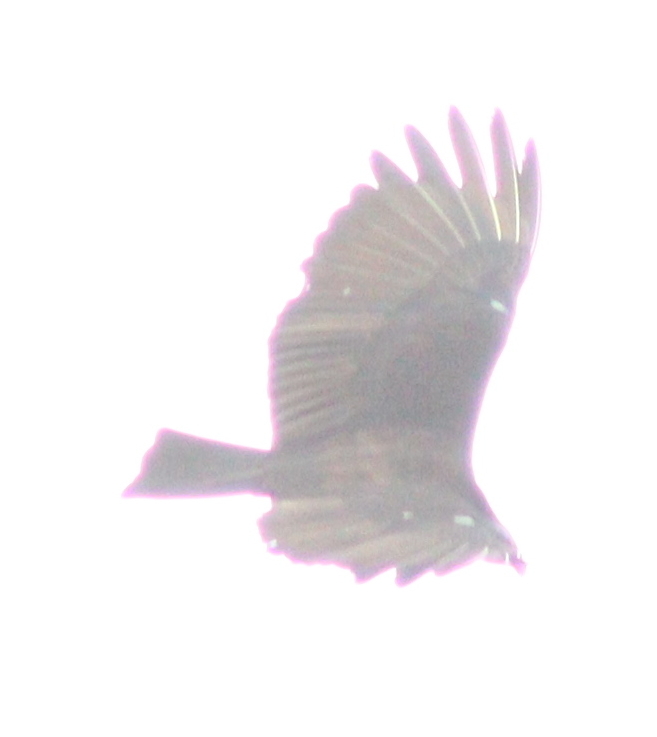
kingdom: Animalia
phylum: Chordata
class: Aves
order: Accipitriformes
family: Cathartidae
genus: Cathartes
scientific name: Cathartes burrovianus
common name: Lesser yellow-headed vulture
